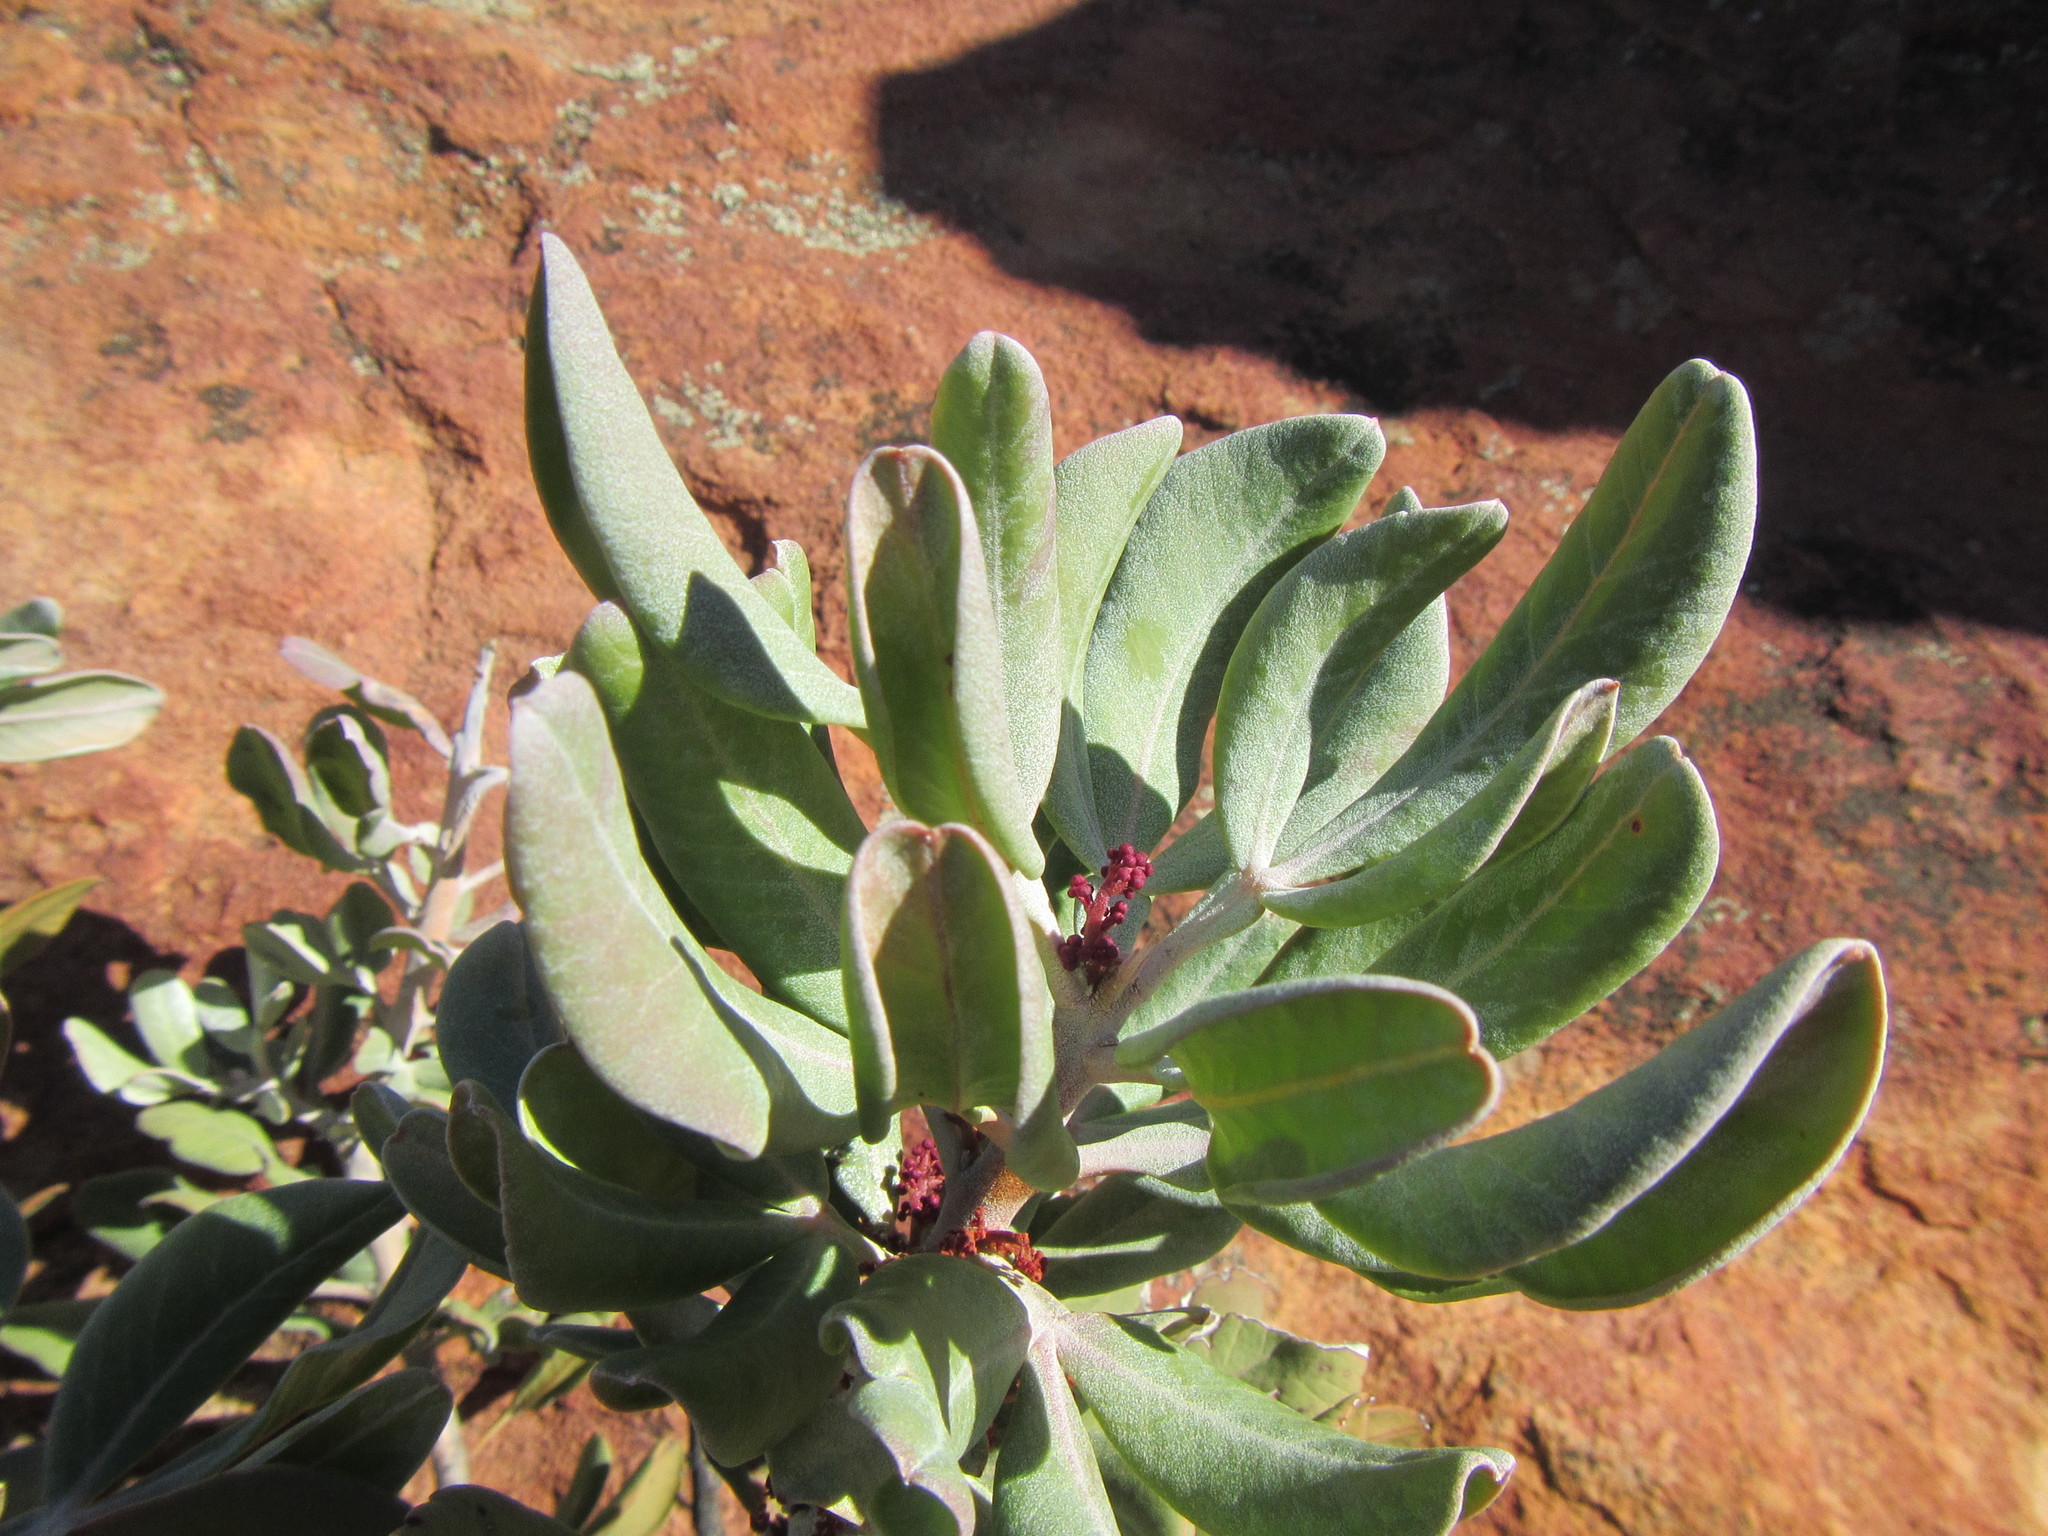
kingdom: Plantae
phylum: Tracheophyta
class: Magnoliopsida
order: Sapindales
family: Anacardiaceae
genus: Searsia
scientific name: Searsia scytophylla
